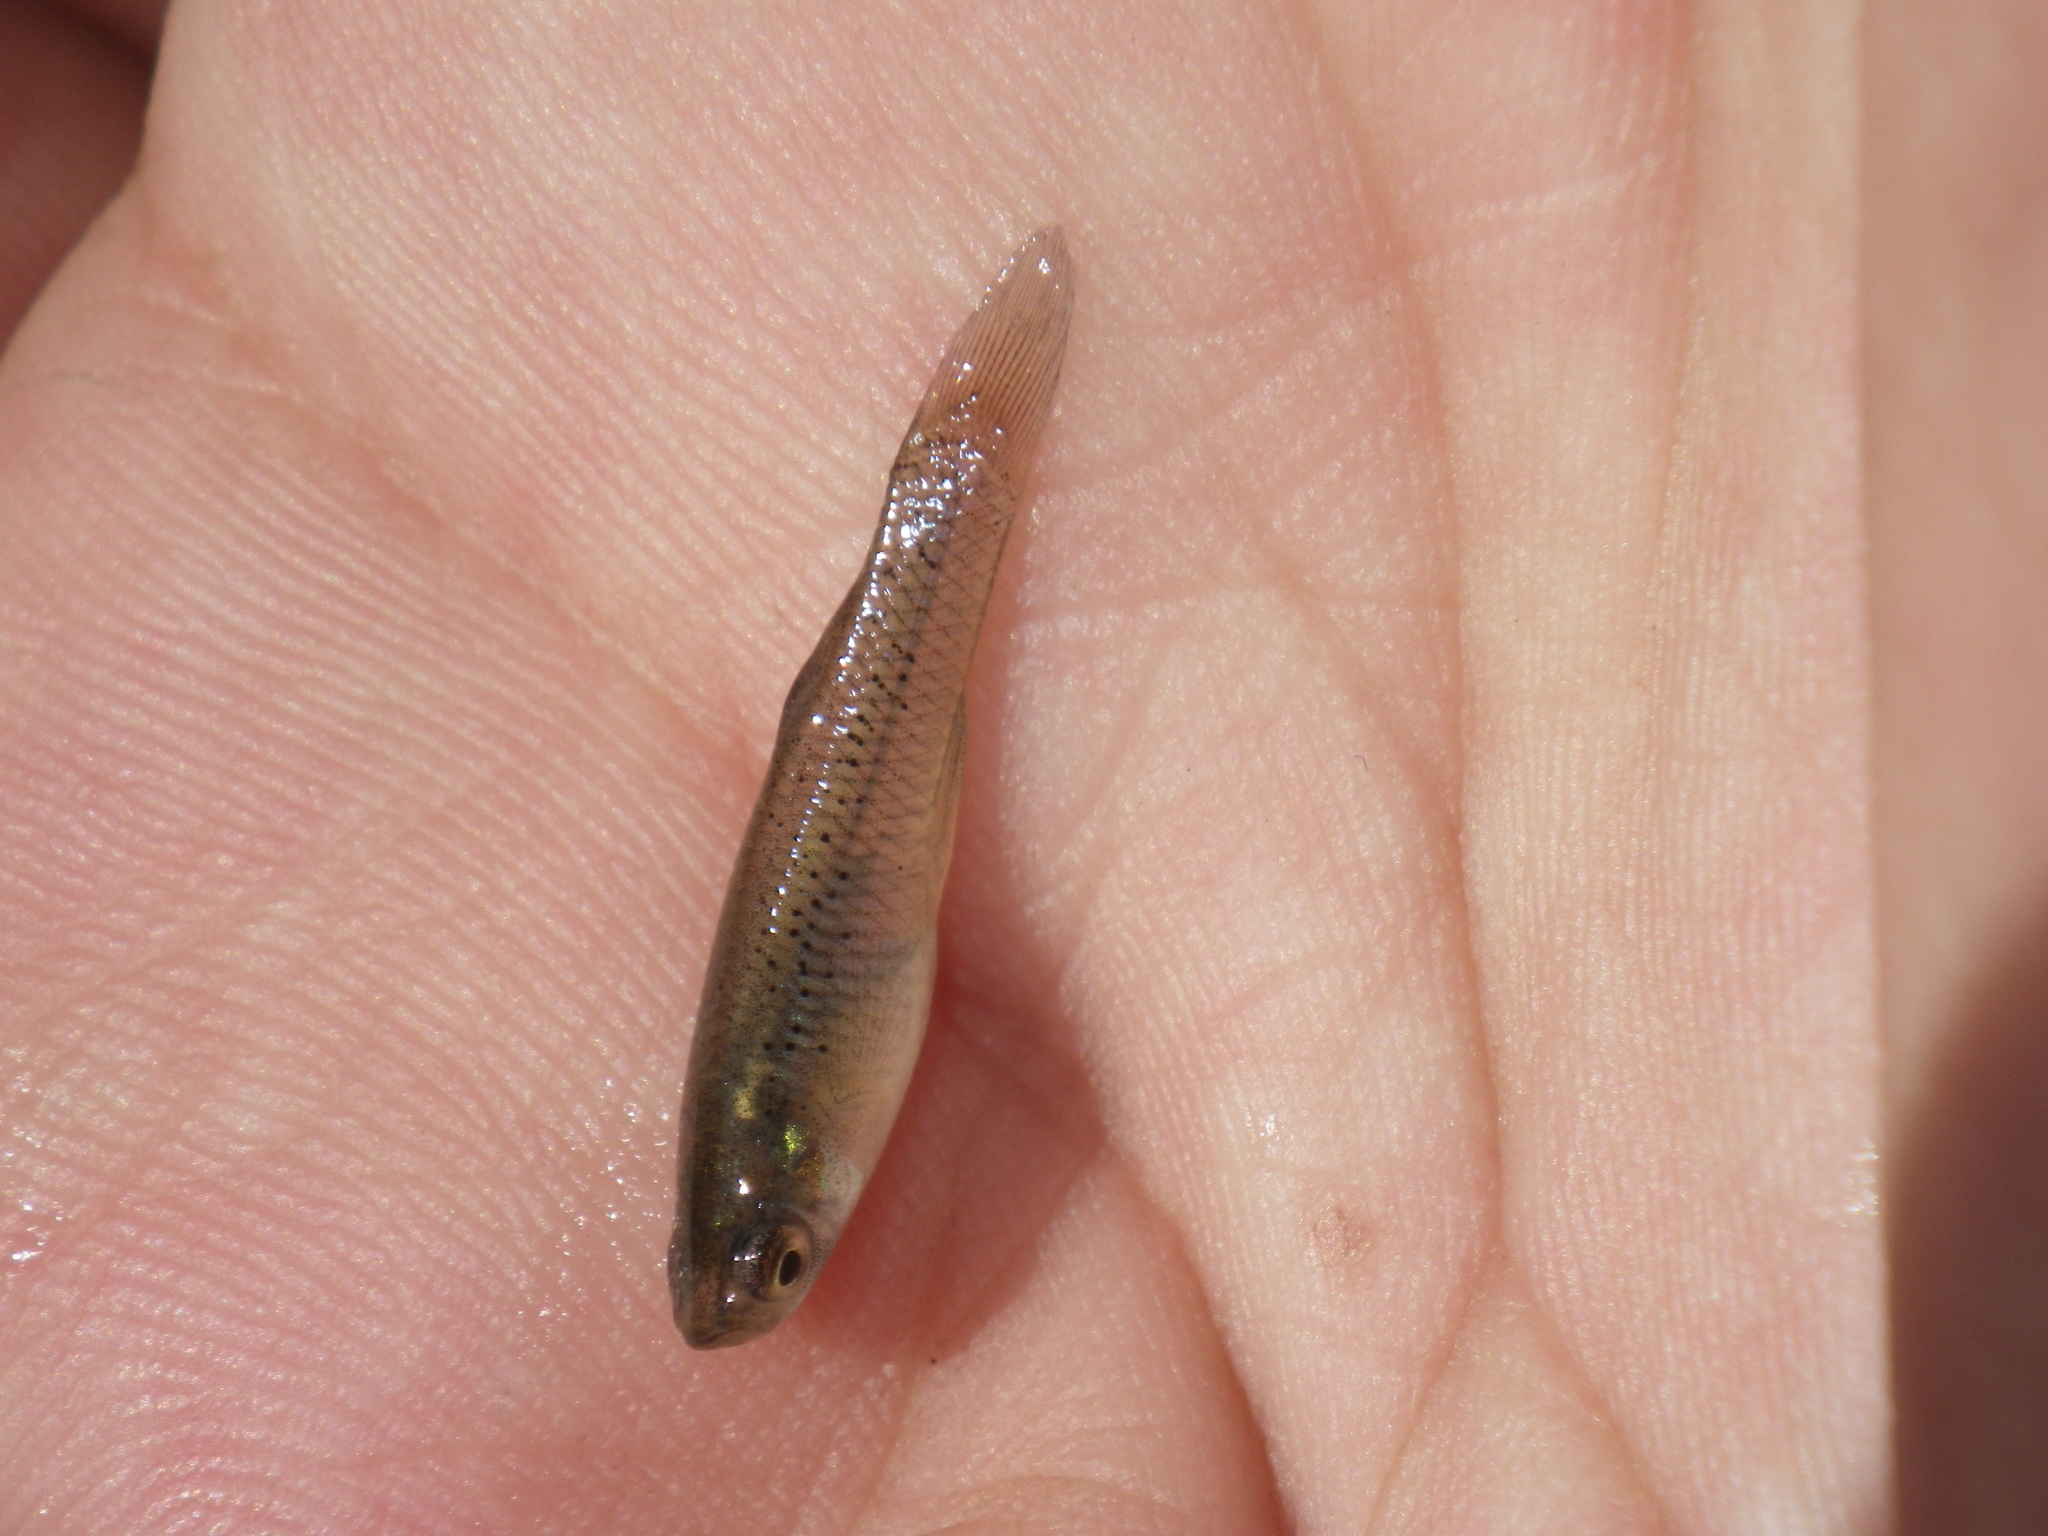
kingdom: Animalia
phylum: Chordata
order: Cyprinodontiformes
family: Poeciliidae
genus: Gambusia
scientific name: Gambusia affinis
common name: Mosquitofish
